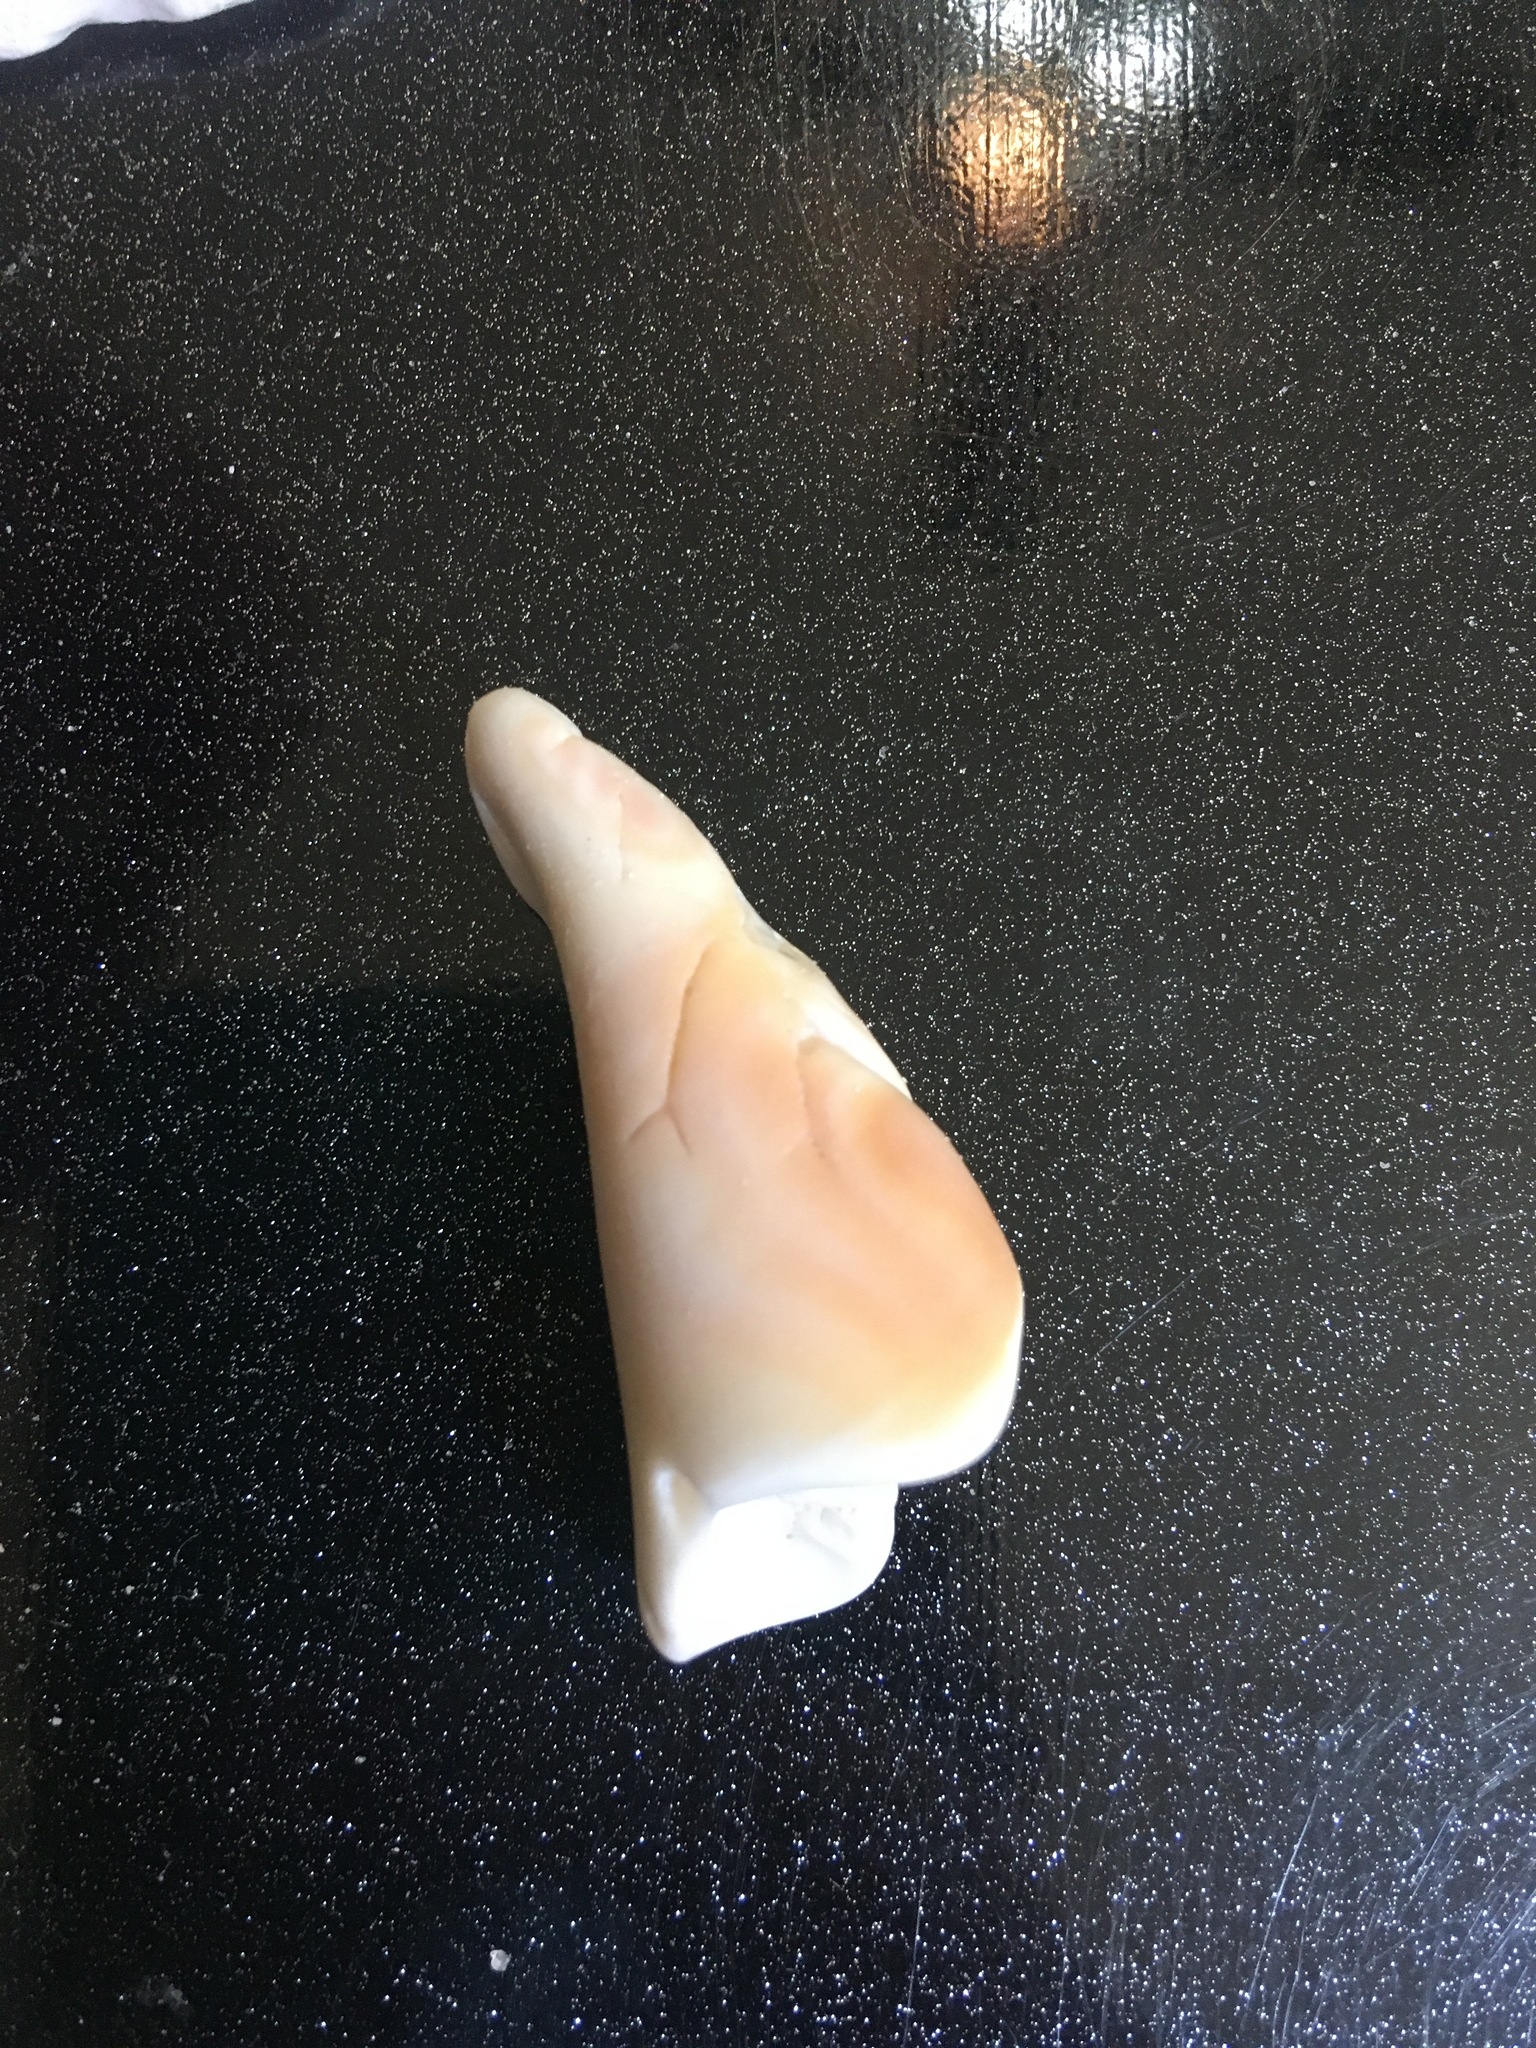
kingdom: Animalia
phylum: Mollusca
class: Gastropoda
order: Littorinimorpha
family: Strombidae
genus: Strombus
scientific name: Strombus alatus
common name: Florida fighting conch
